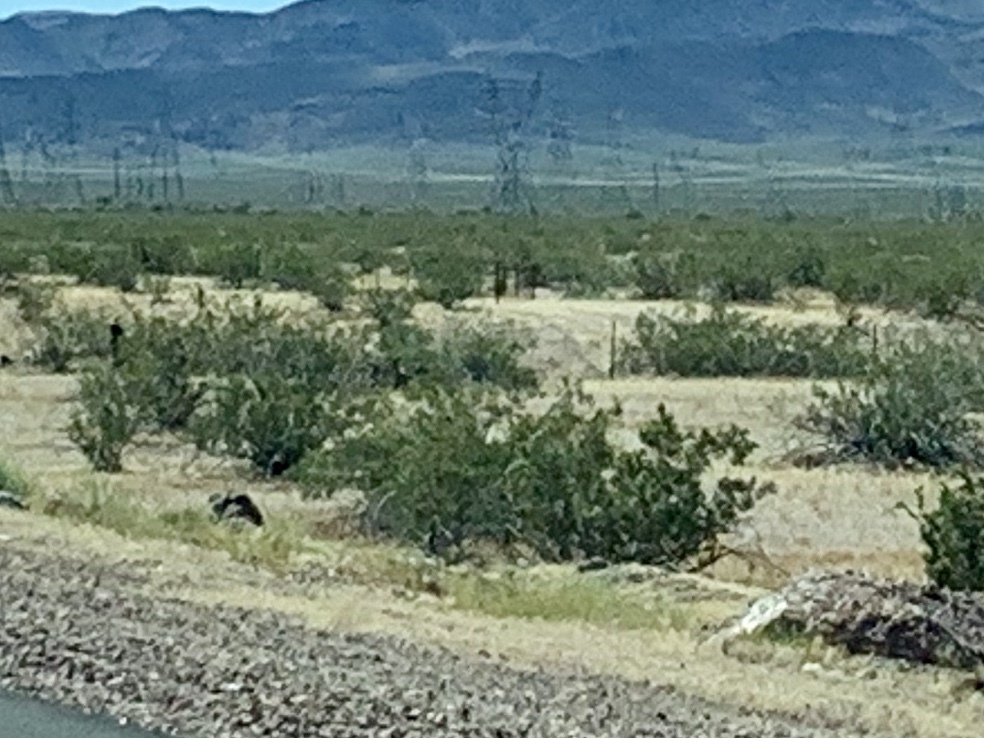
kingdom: Plantae
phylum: Tracheophyta
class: Magnoliopsida
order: Zygophyllales
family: Zygophyllaceae
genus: Larrea
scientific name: Larrea tridentata
